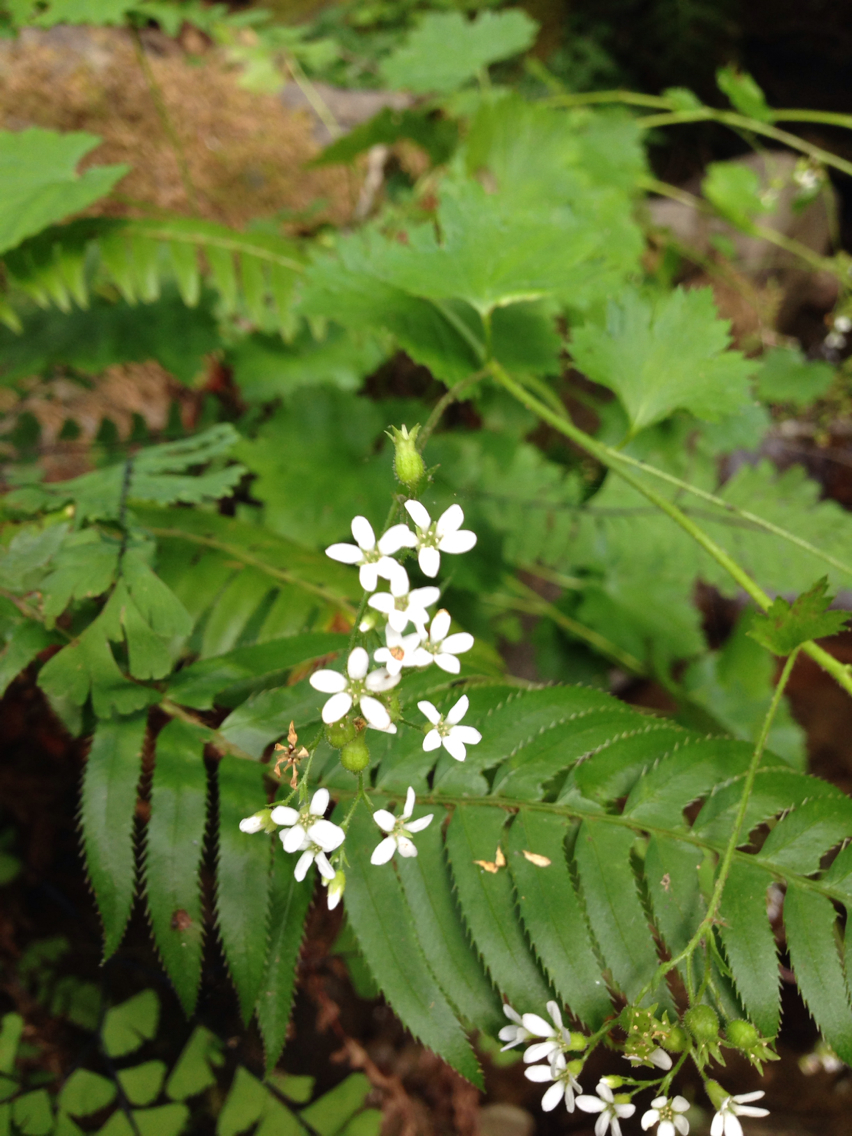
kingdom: Plantae
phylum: Tracheophyta
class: Magnoliopsida
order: Saxifragales
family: Saxifragaceae
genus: Boykinia
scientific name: Boykinia occidentalis
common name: Coast boykinia
